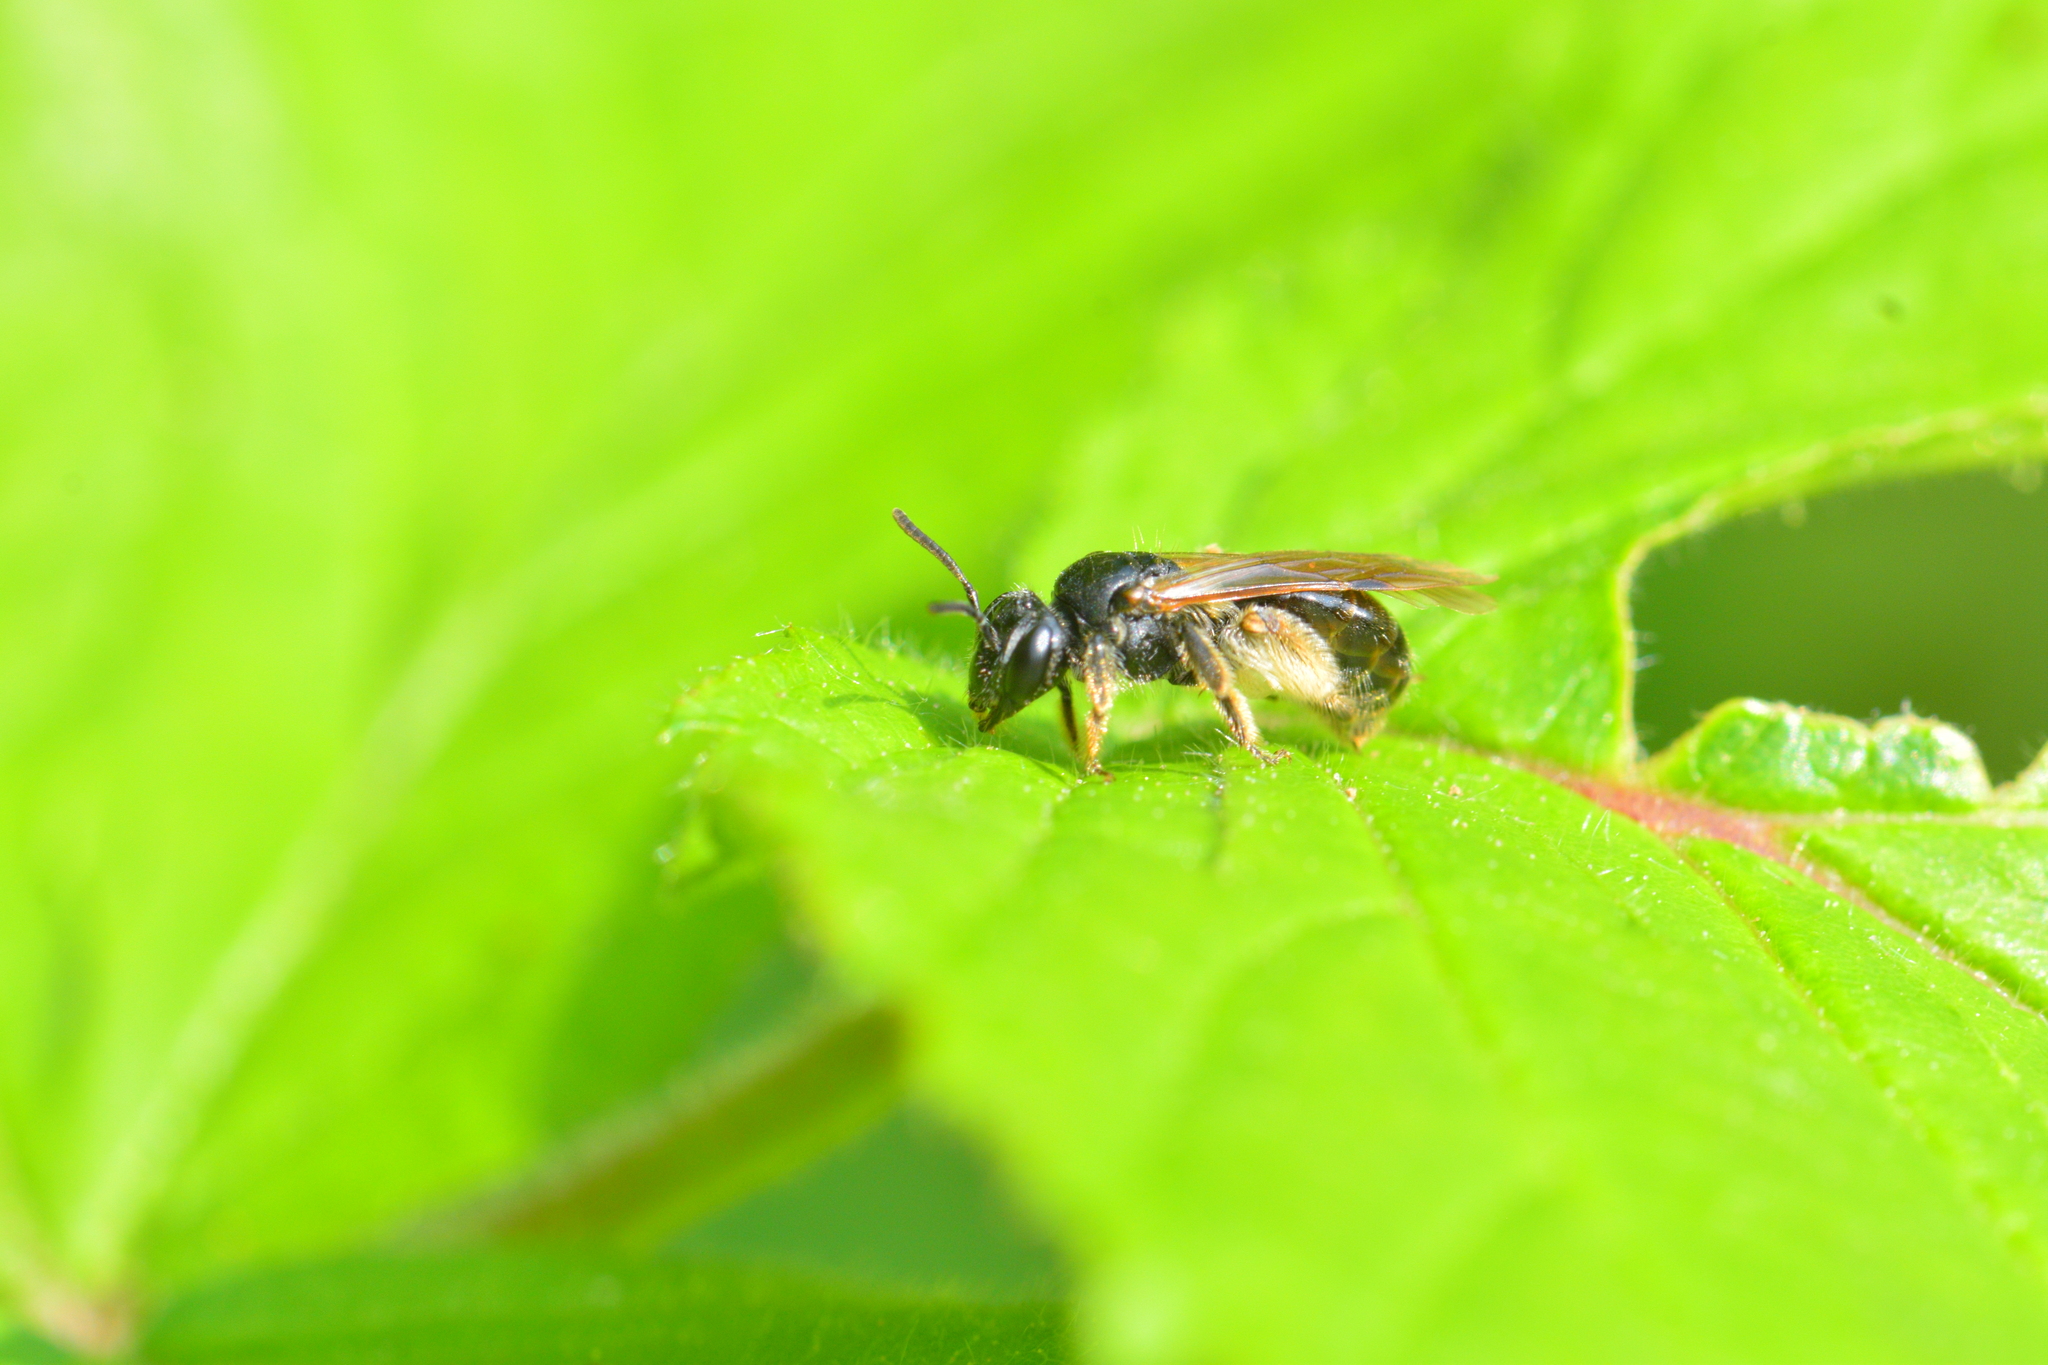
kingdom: Animalia
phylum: Arthropoda
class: Insecta
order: Hymenoptera
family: Andrenidae
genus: Andrena
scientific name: Andrena integra
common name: Short-haired dogwood mining bee
